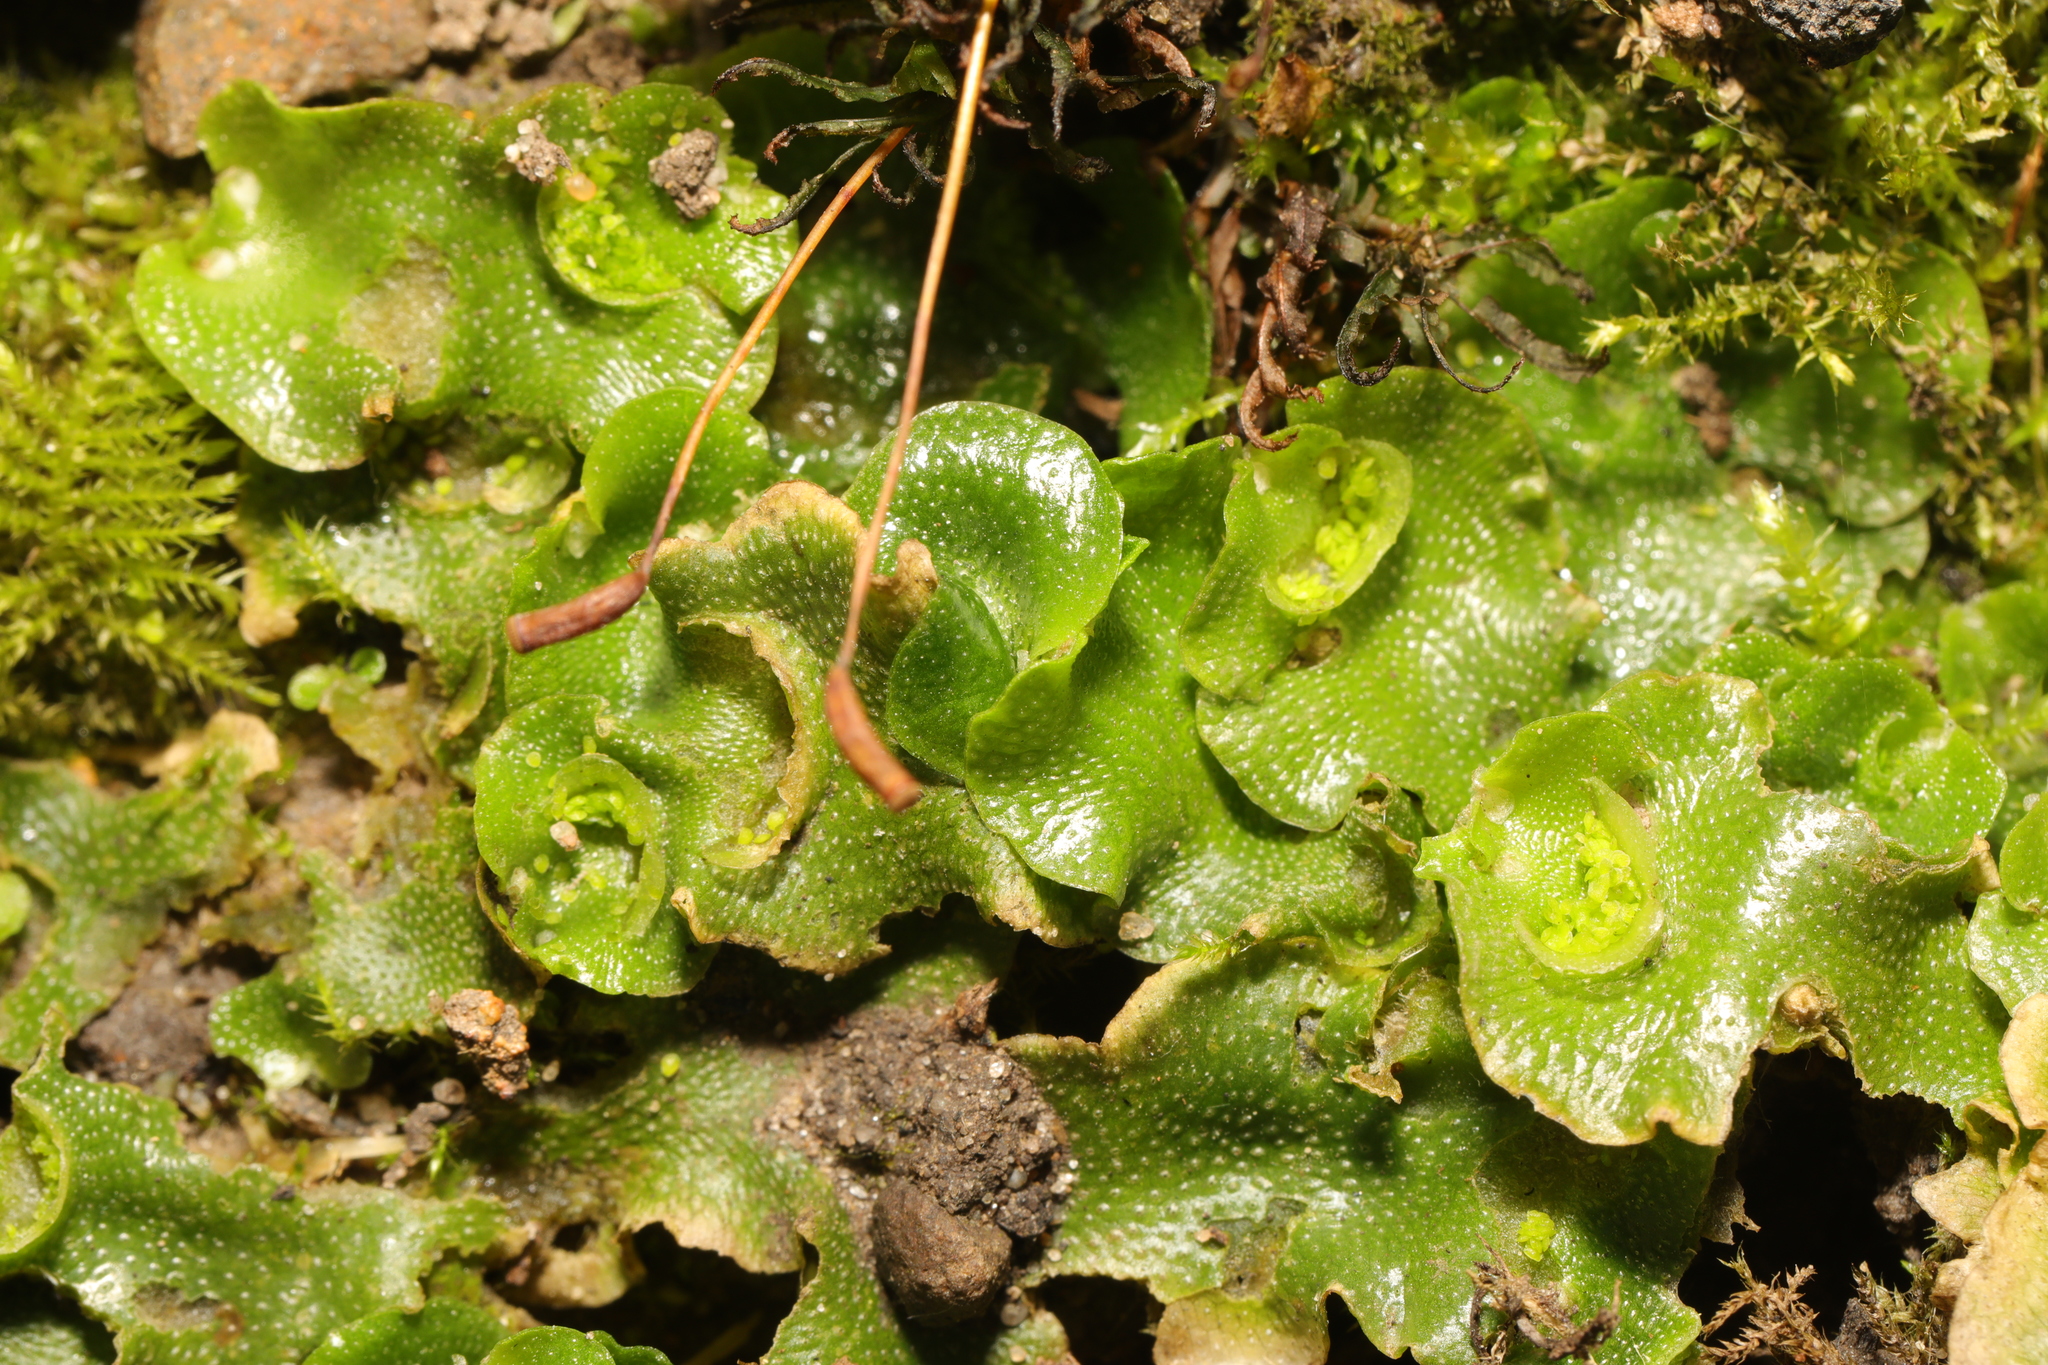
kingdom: Plantae
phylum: Marchantiophyta
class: Marchantiopsida
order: Lunulariales
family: Lunulariaceae
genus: Lunularia
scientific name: Lunularia cruciata
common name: Crescent-cup liverwort
